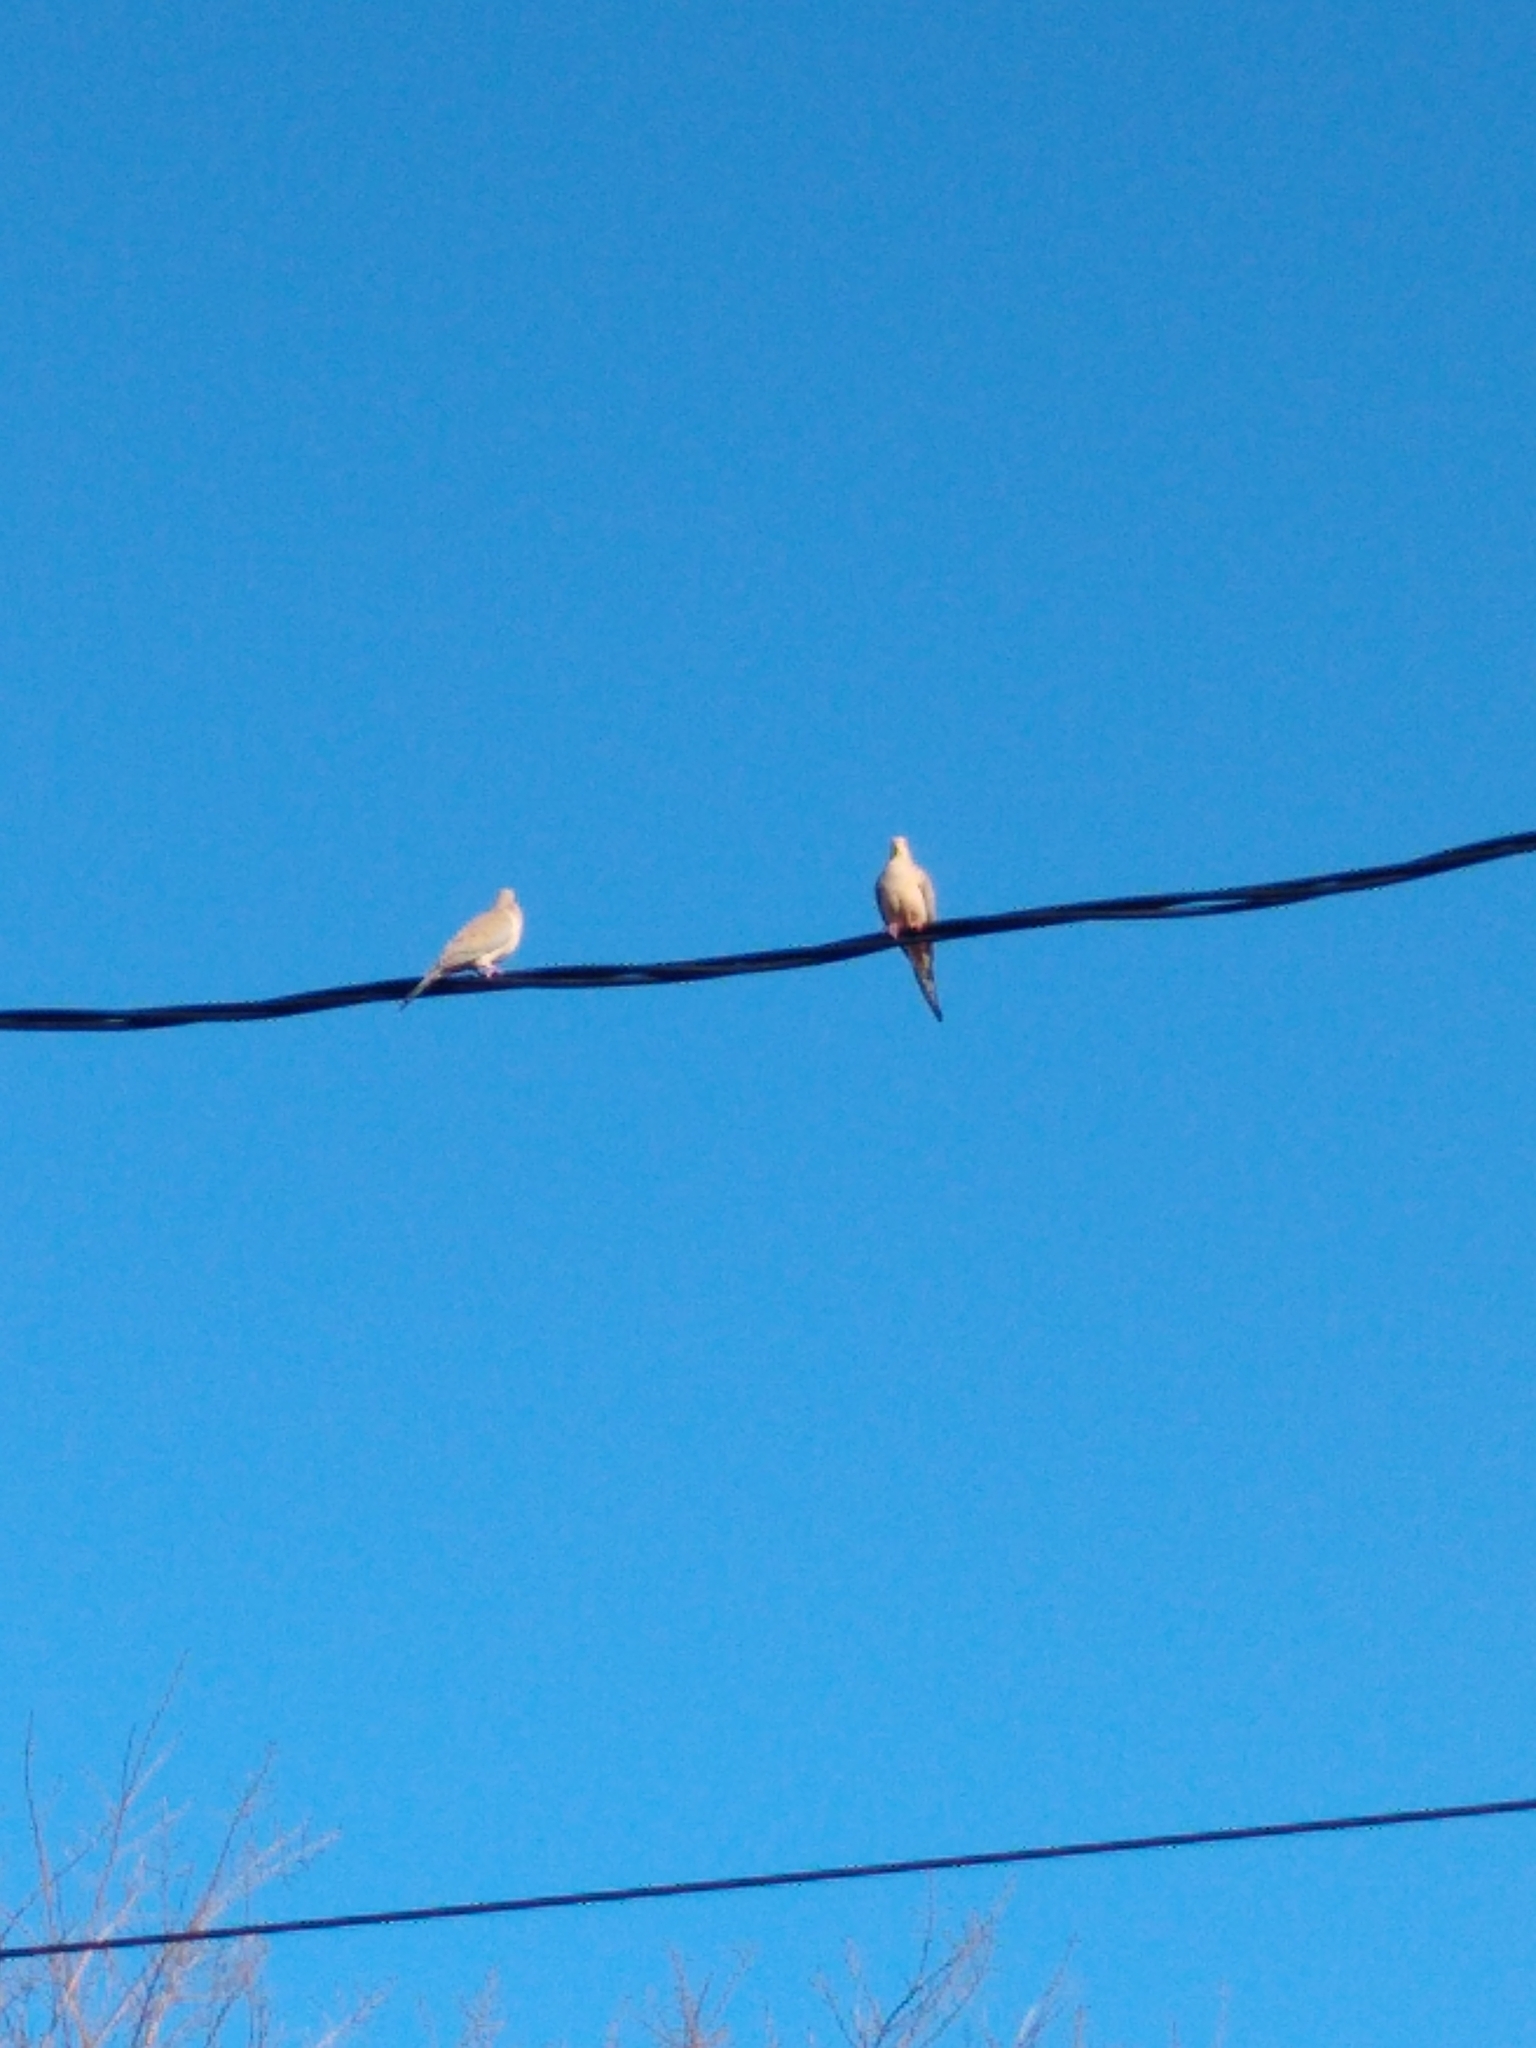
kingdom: Animalia
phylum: Chordata
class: Aves
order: Columbiformes
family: Columbidae
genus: Zenaida
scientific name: Zenaida macroura
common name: Mourning dove
